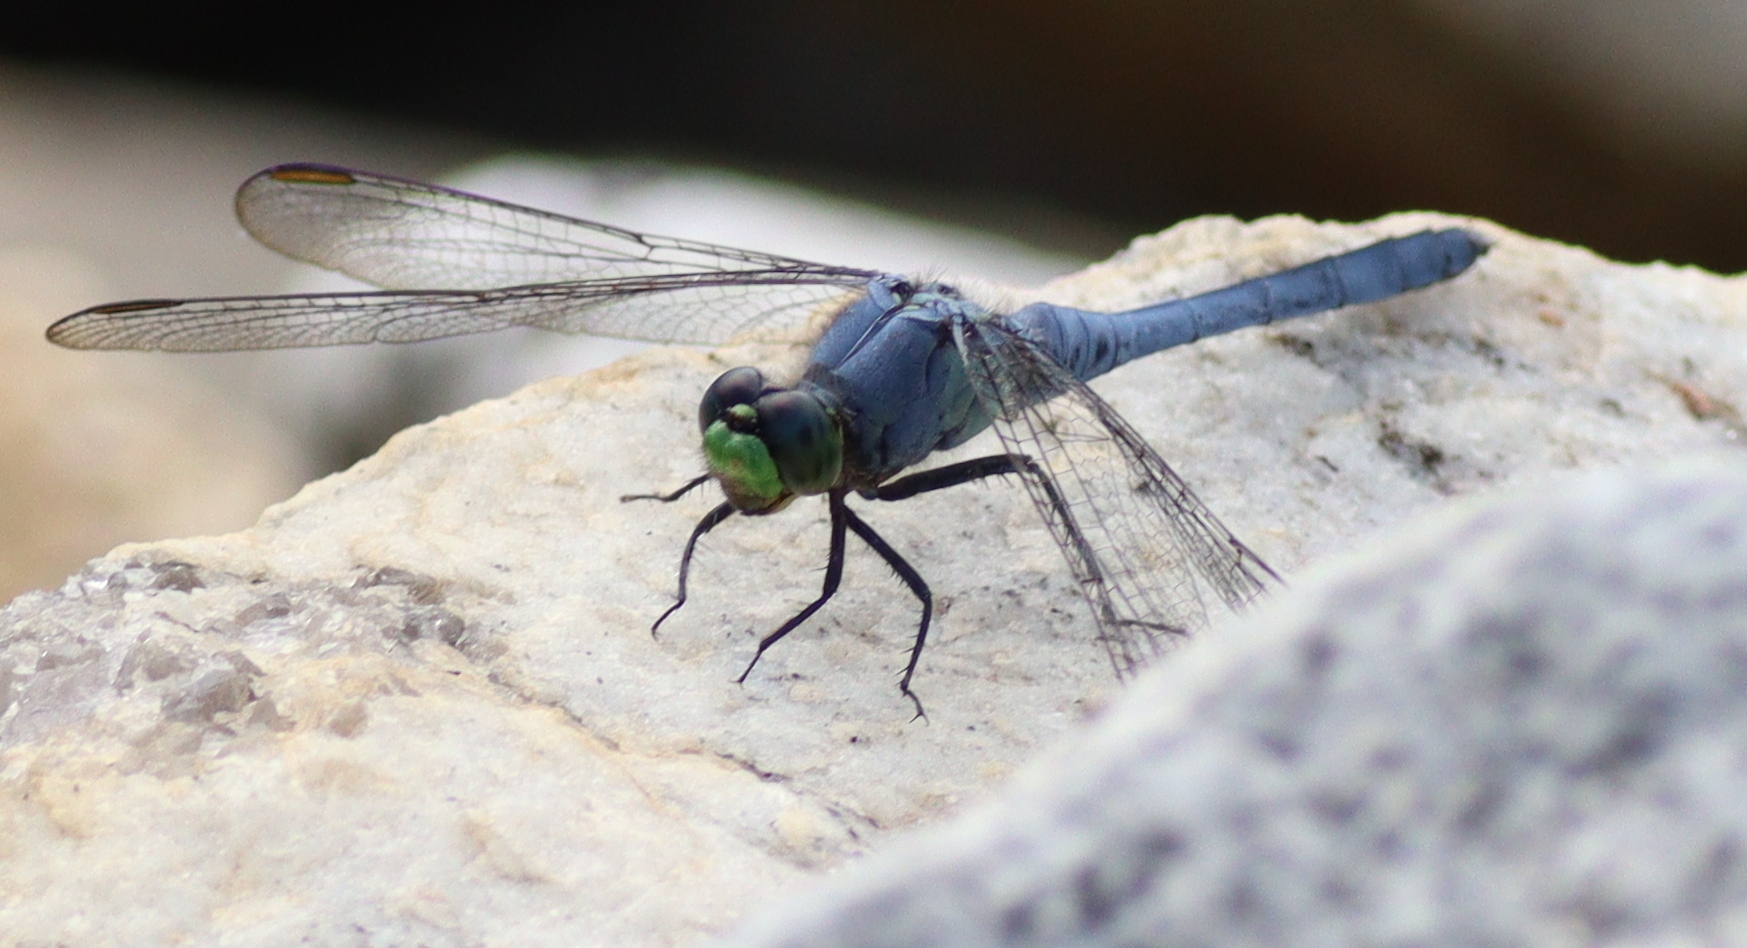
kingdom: Animalia
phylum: Arthropoda
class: Insecta
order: Odonata
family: Libellulidae
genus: Erythemis
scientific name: Erythemis simplicicollis
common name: Eastern pondhawk
